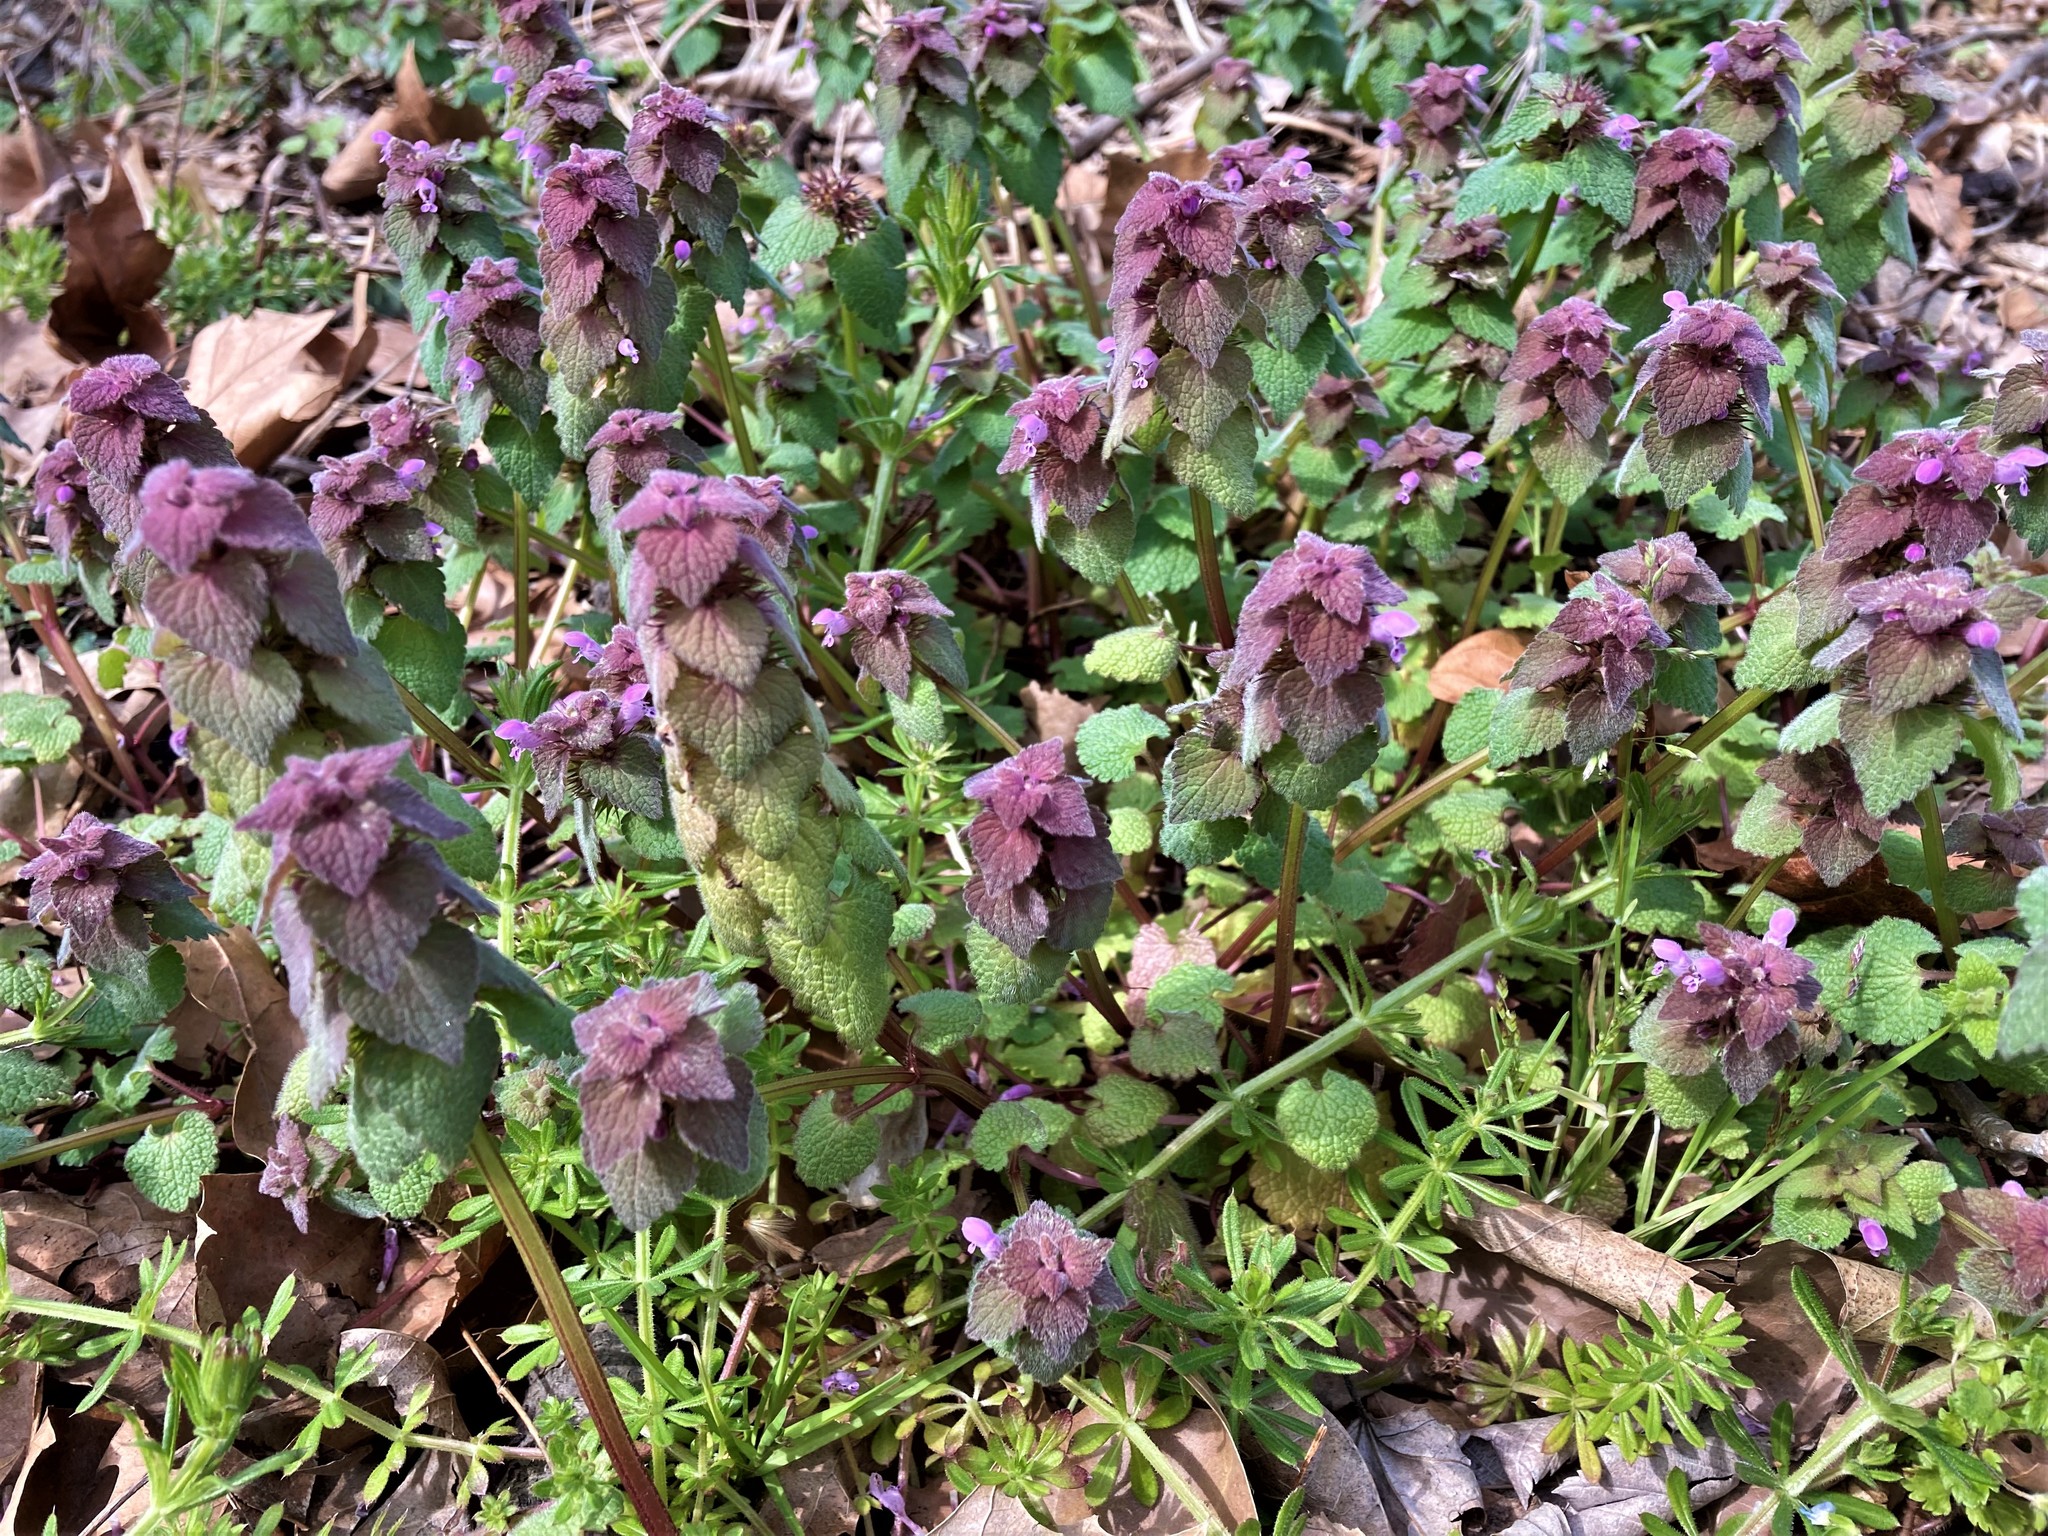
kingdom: Plantae
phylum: Tracheophyta
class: Magnoliopsida
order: Lamiales
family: Lamiaceae
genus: Lamium
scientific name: Lamium purpureum
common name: Red dead-nettle
